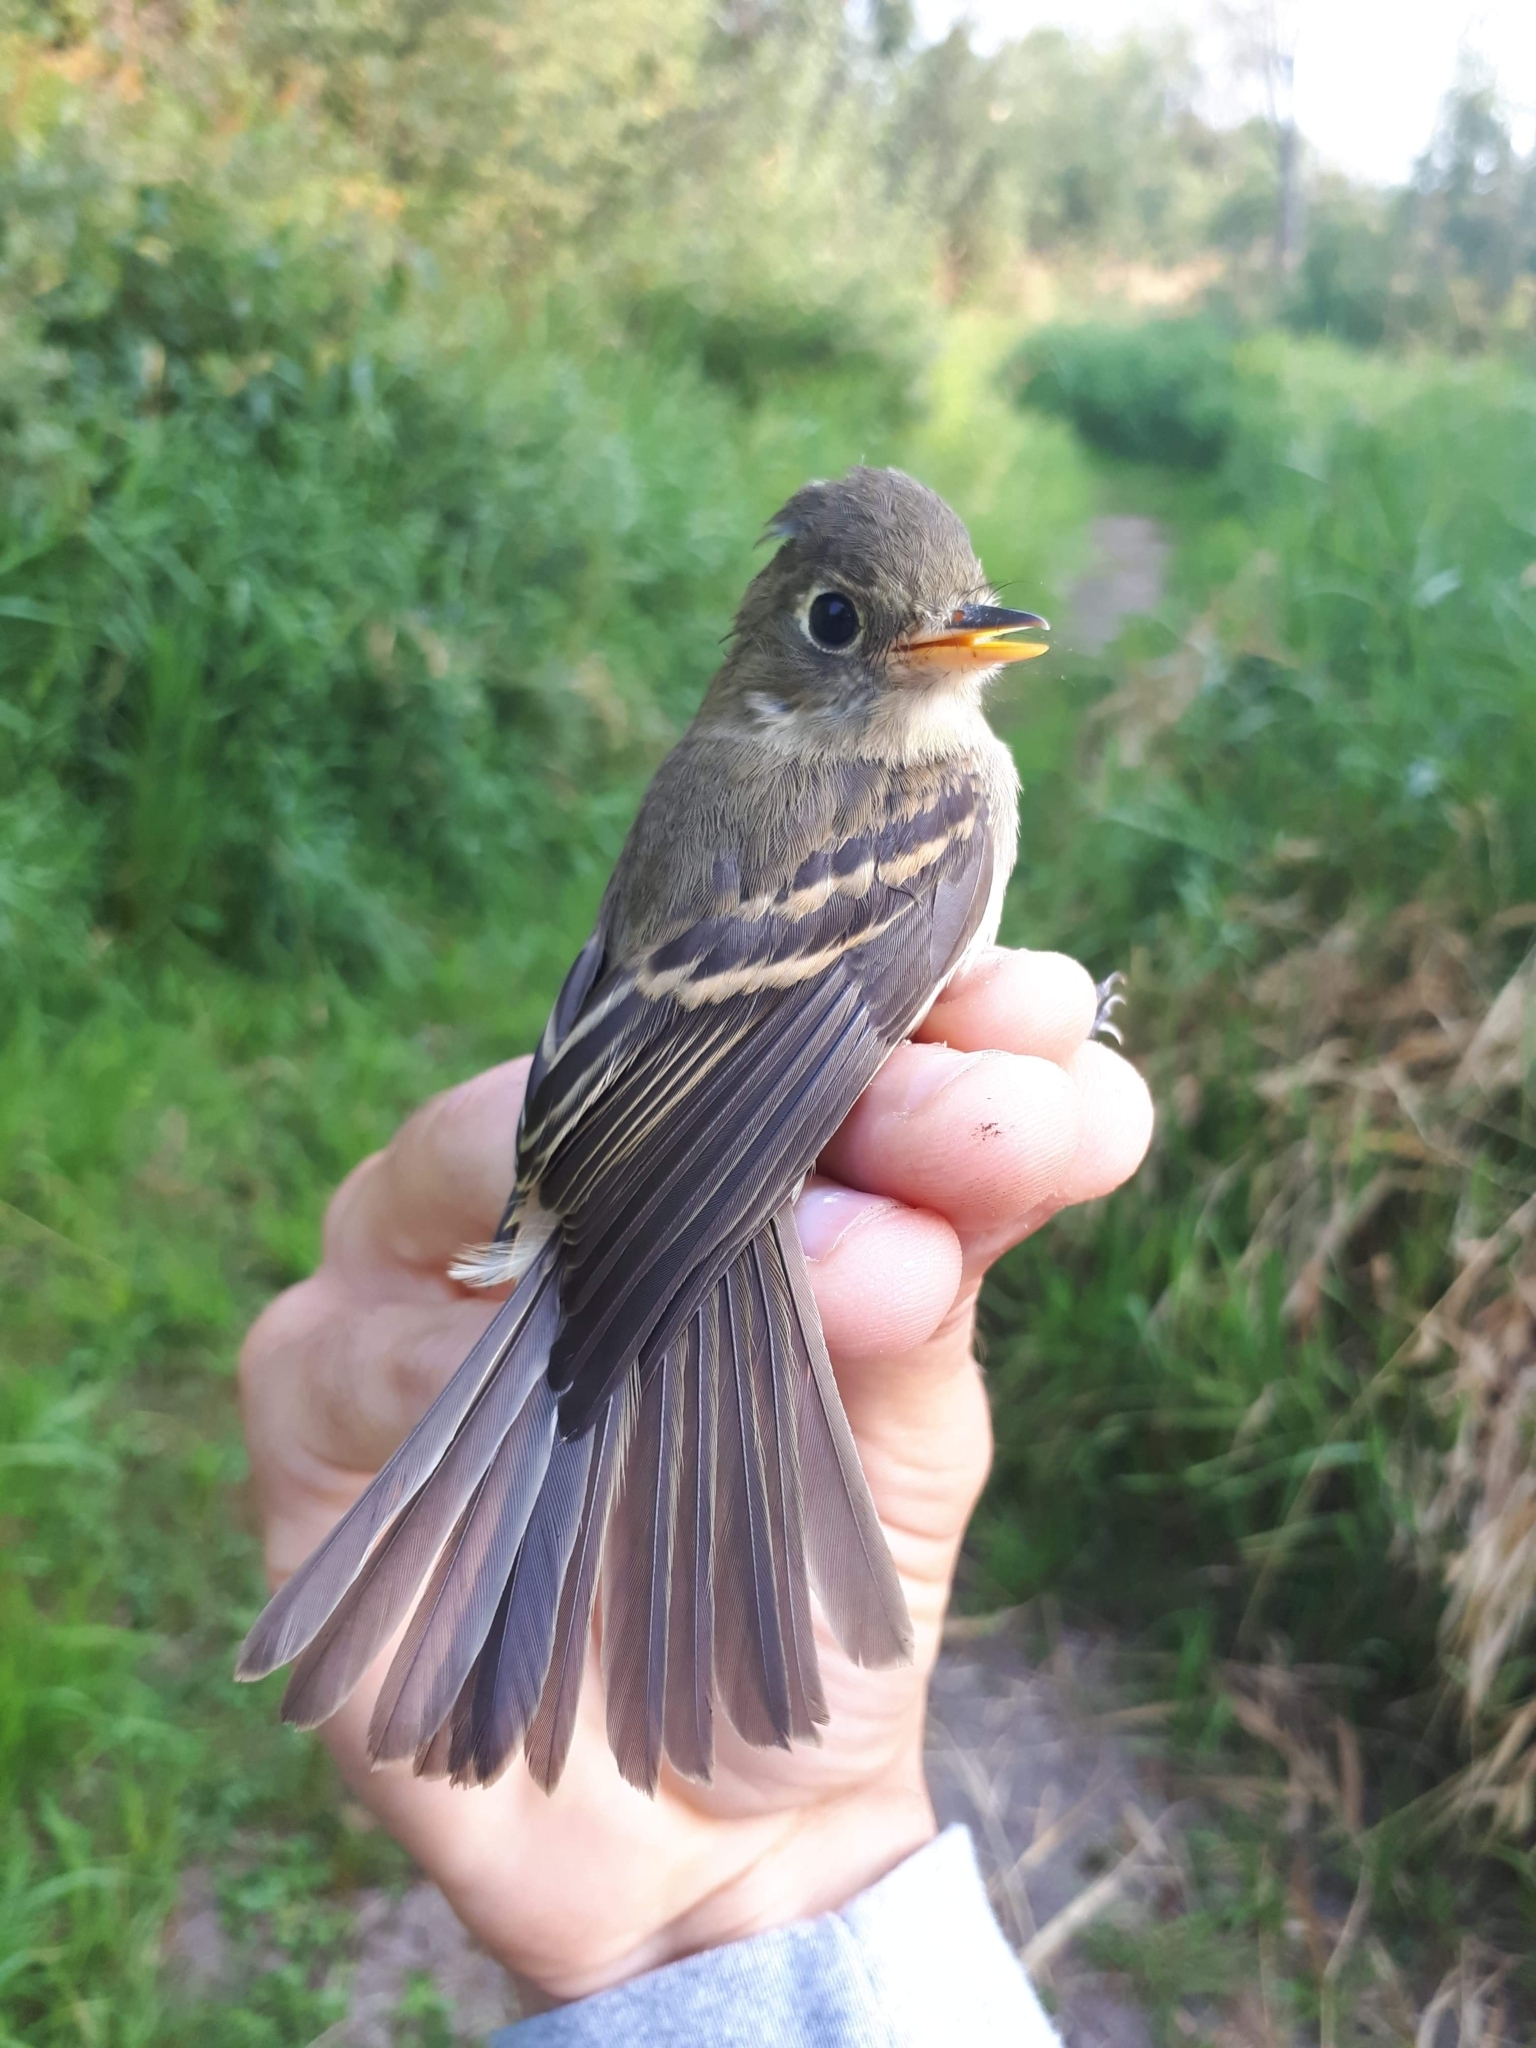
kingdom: Animalia
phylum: Chordata
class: Aves
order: Passeriformes
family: Tyrannidae
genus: Empidonax
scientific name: Empidonax difficilis
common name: Pacific-slope flycatcher
